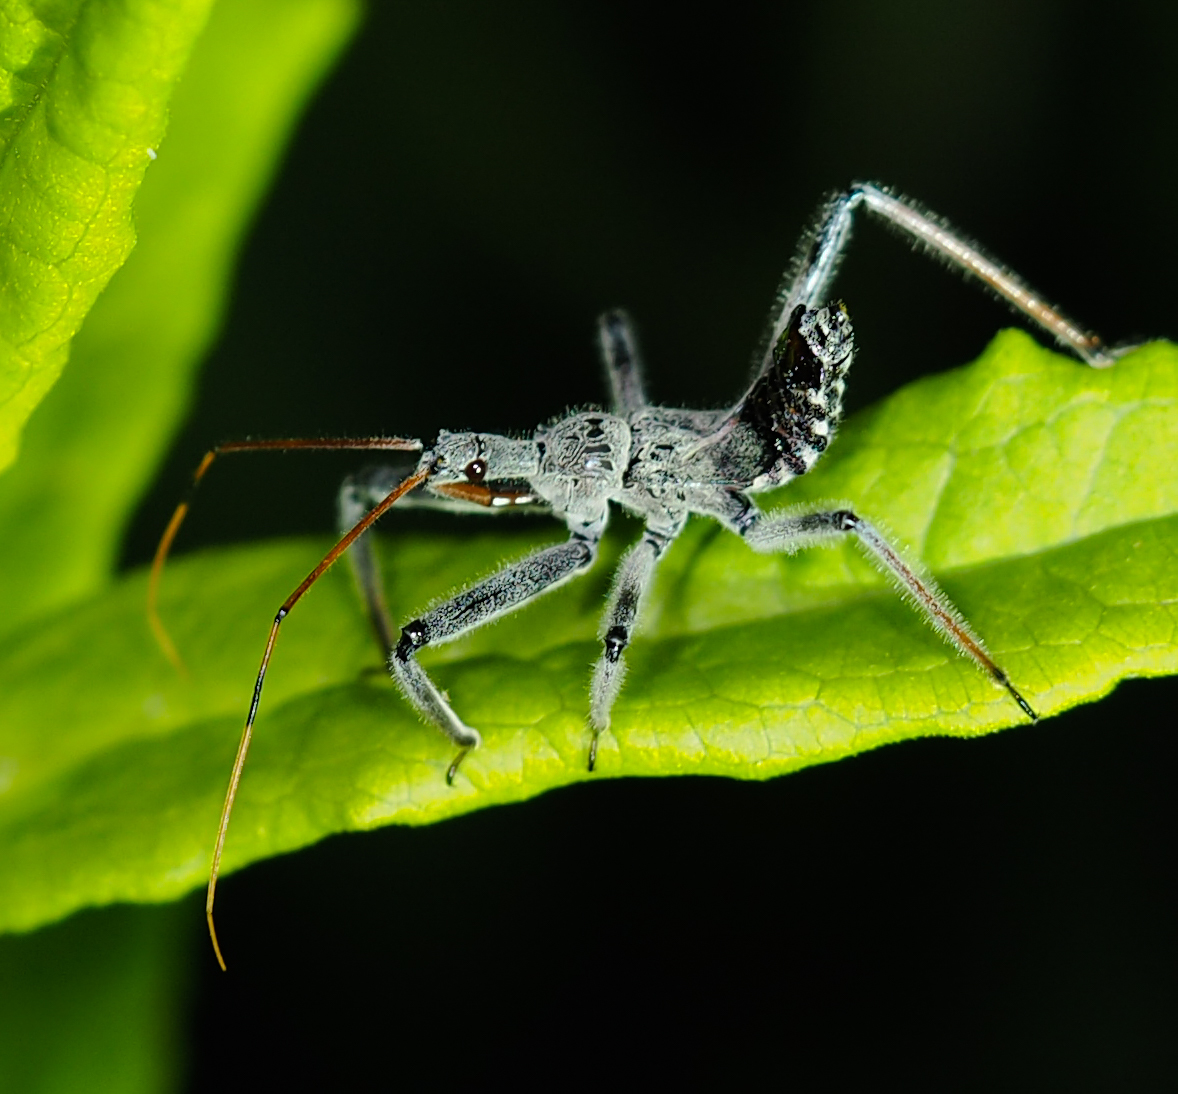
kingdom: Animalia
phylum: Arthropoda
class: Insecta
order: Hemiptera
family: Reduviidae
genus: Arilus
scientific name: Arilus cristatus
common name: North american wheel bug
